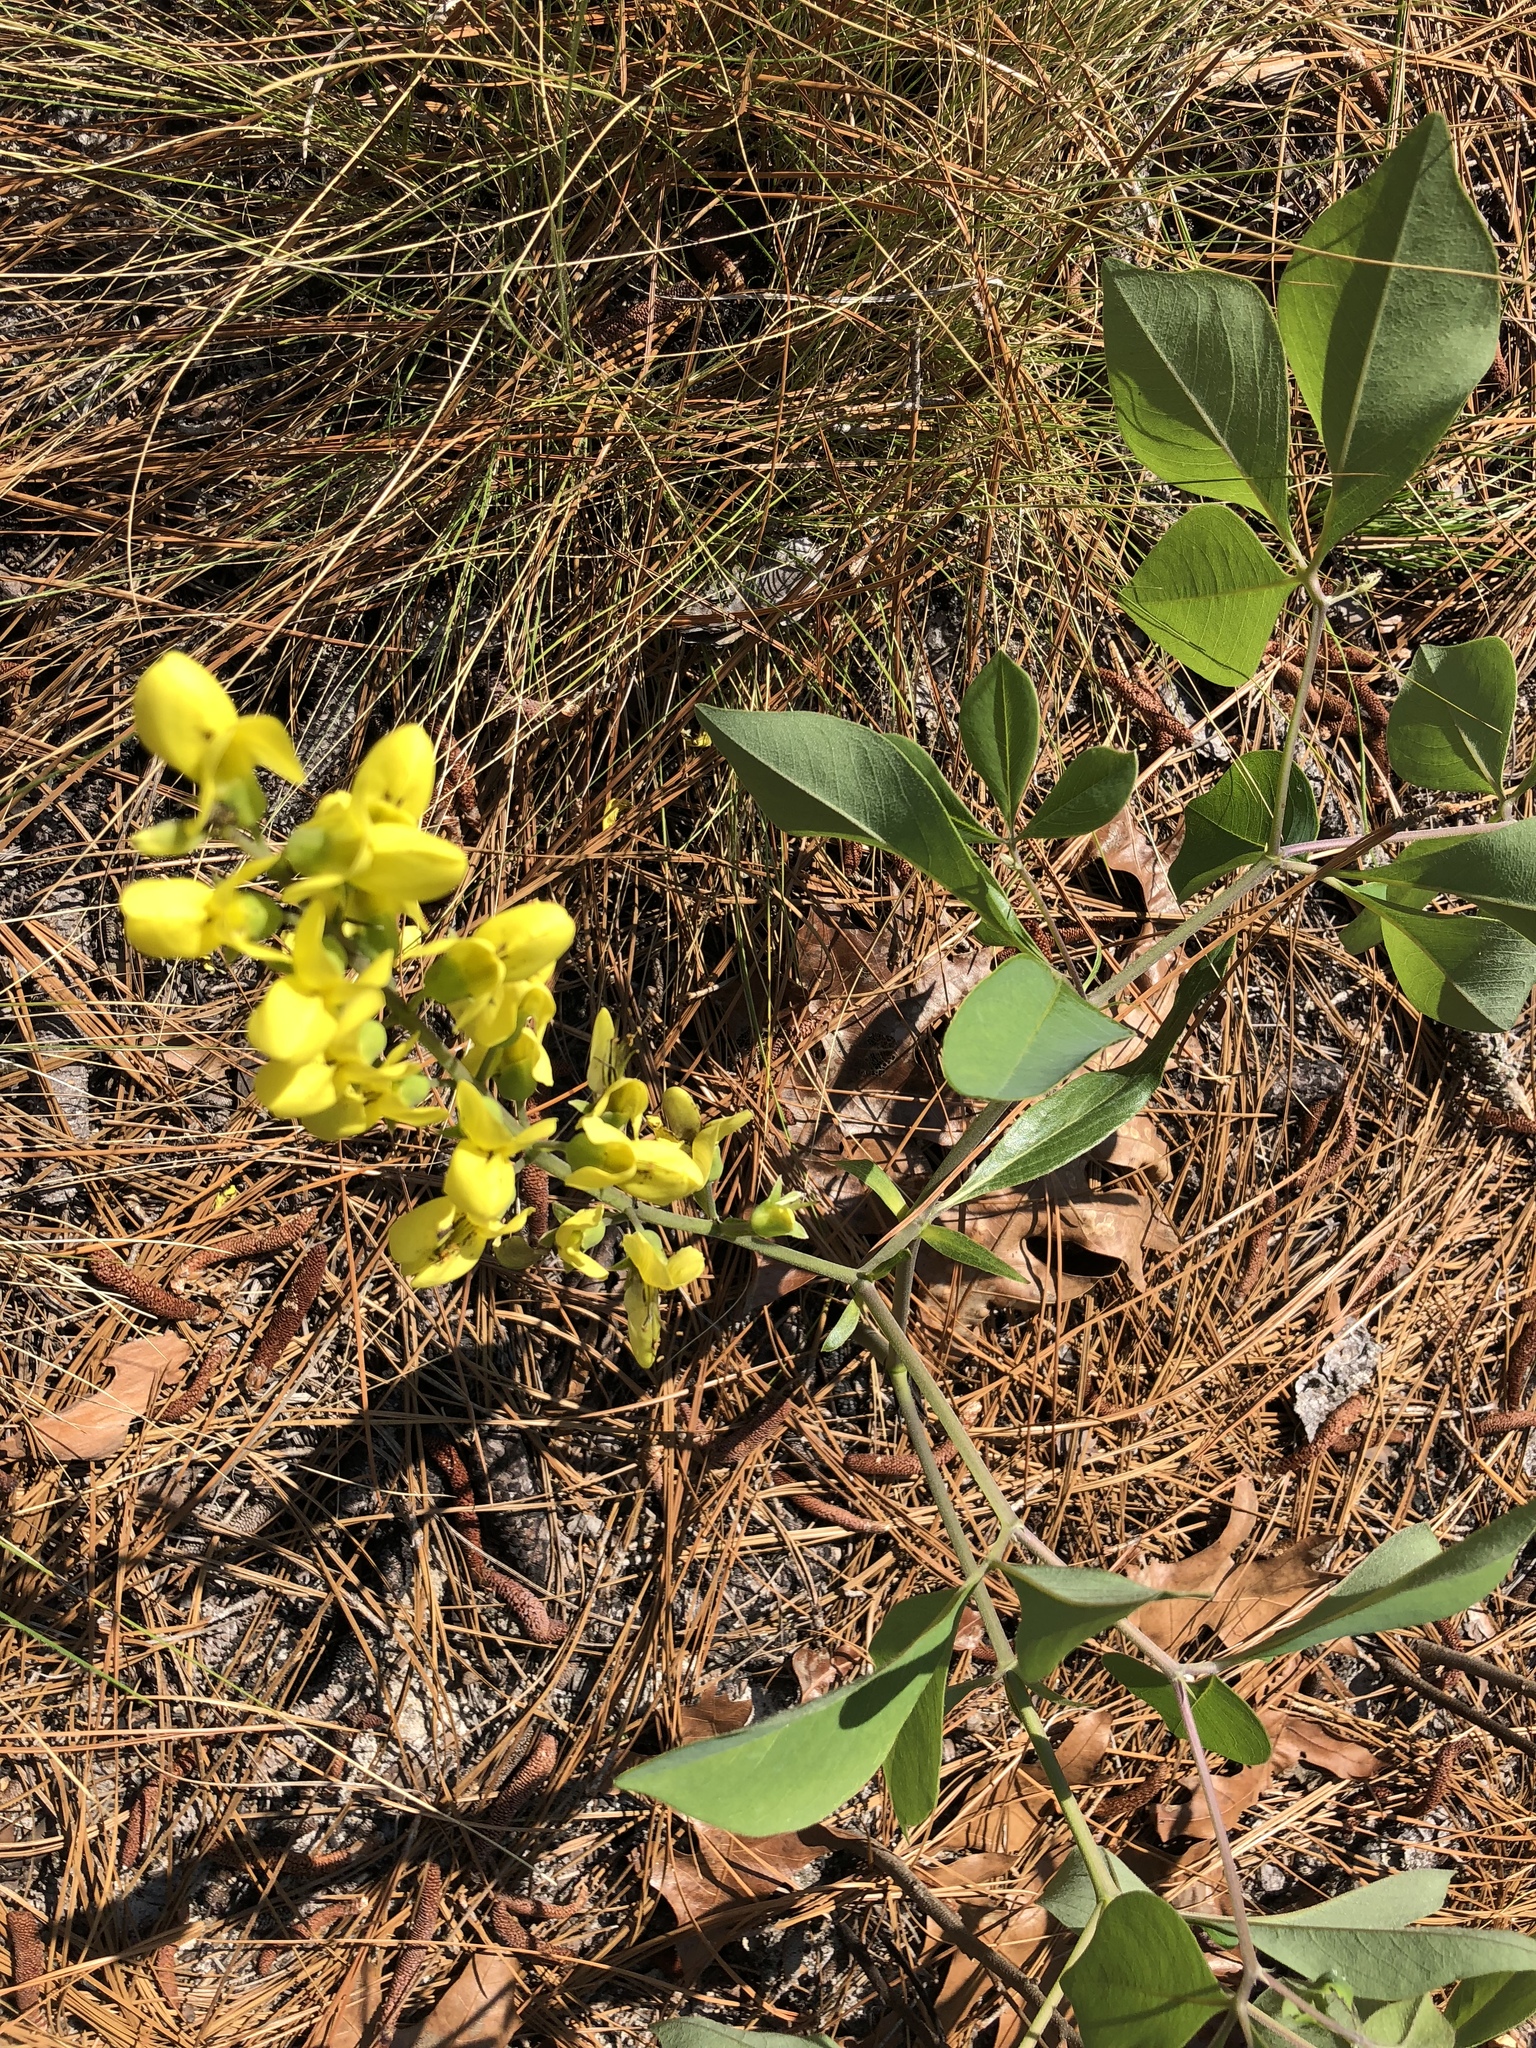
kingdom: Plantae
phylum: Tracheophyta
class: Magnoliopsida
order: Fabales
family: Fabaceae
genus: Baptisia
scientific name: Baptisia cinerea
